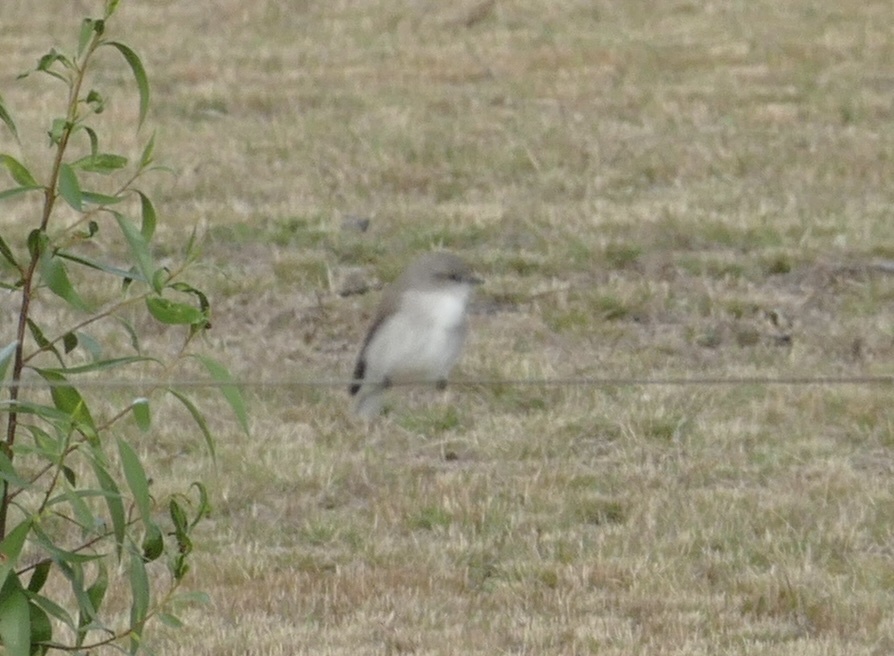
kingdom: Animalia
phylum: Chordata
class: Aves
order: Passeriformes
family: Petroicidae
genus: Microeca
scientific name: Microeca fascinans
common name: Jacky winter
